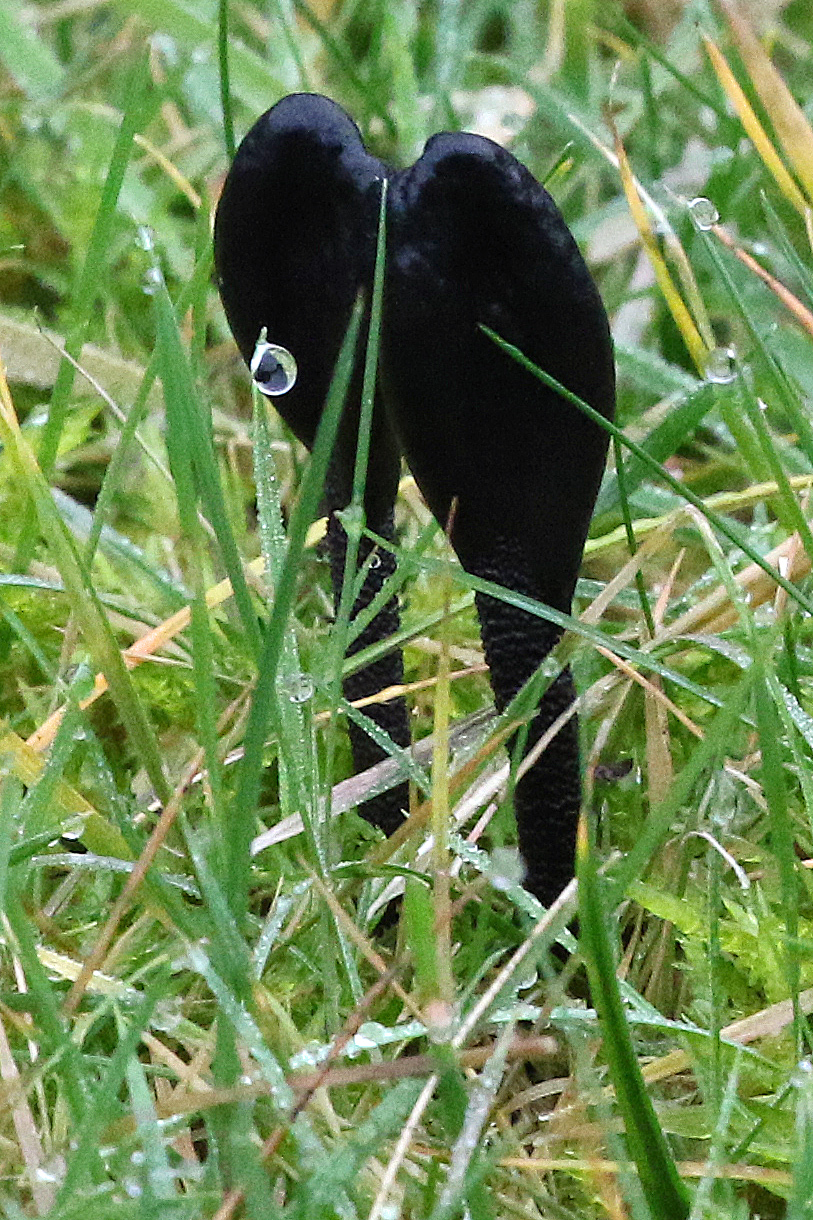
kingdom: Fungi
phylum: Ascomycota
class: Geoglossomycetes
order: Geoglossales
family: Geoglossaceae
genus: Geoglossum
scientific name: Geoglossum
